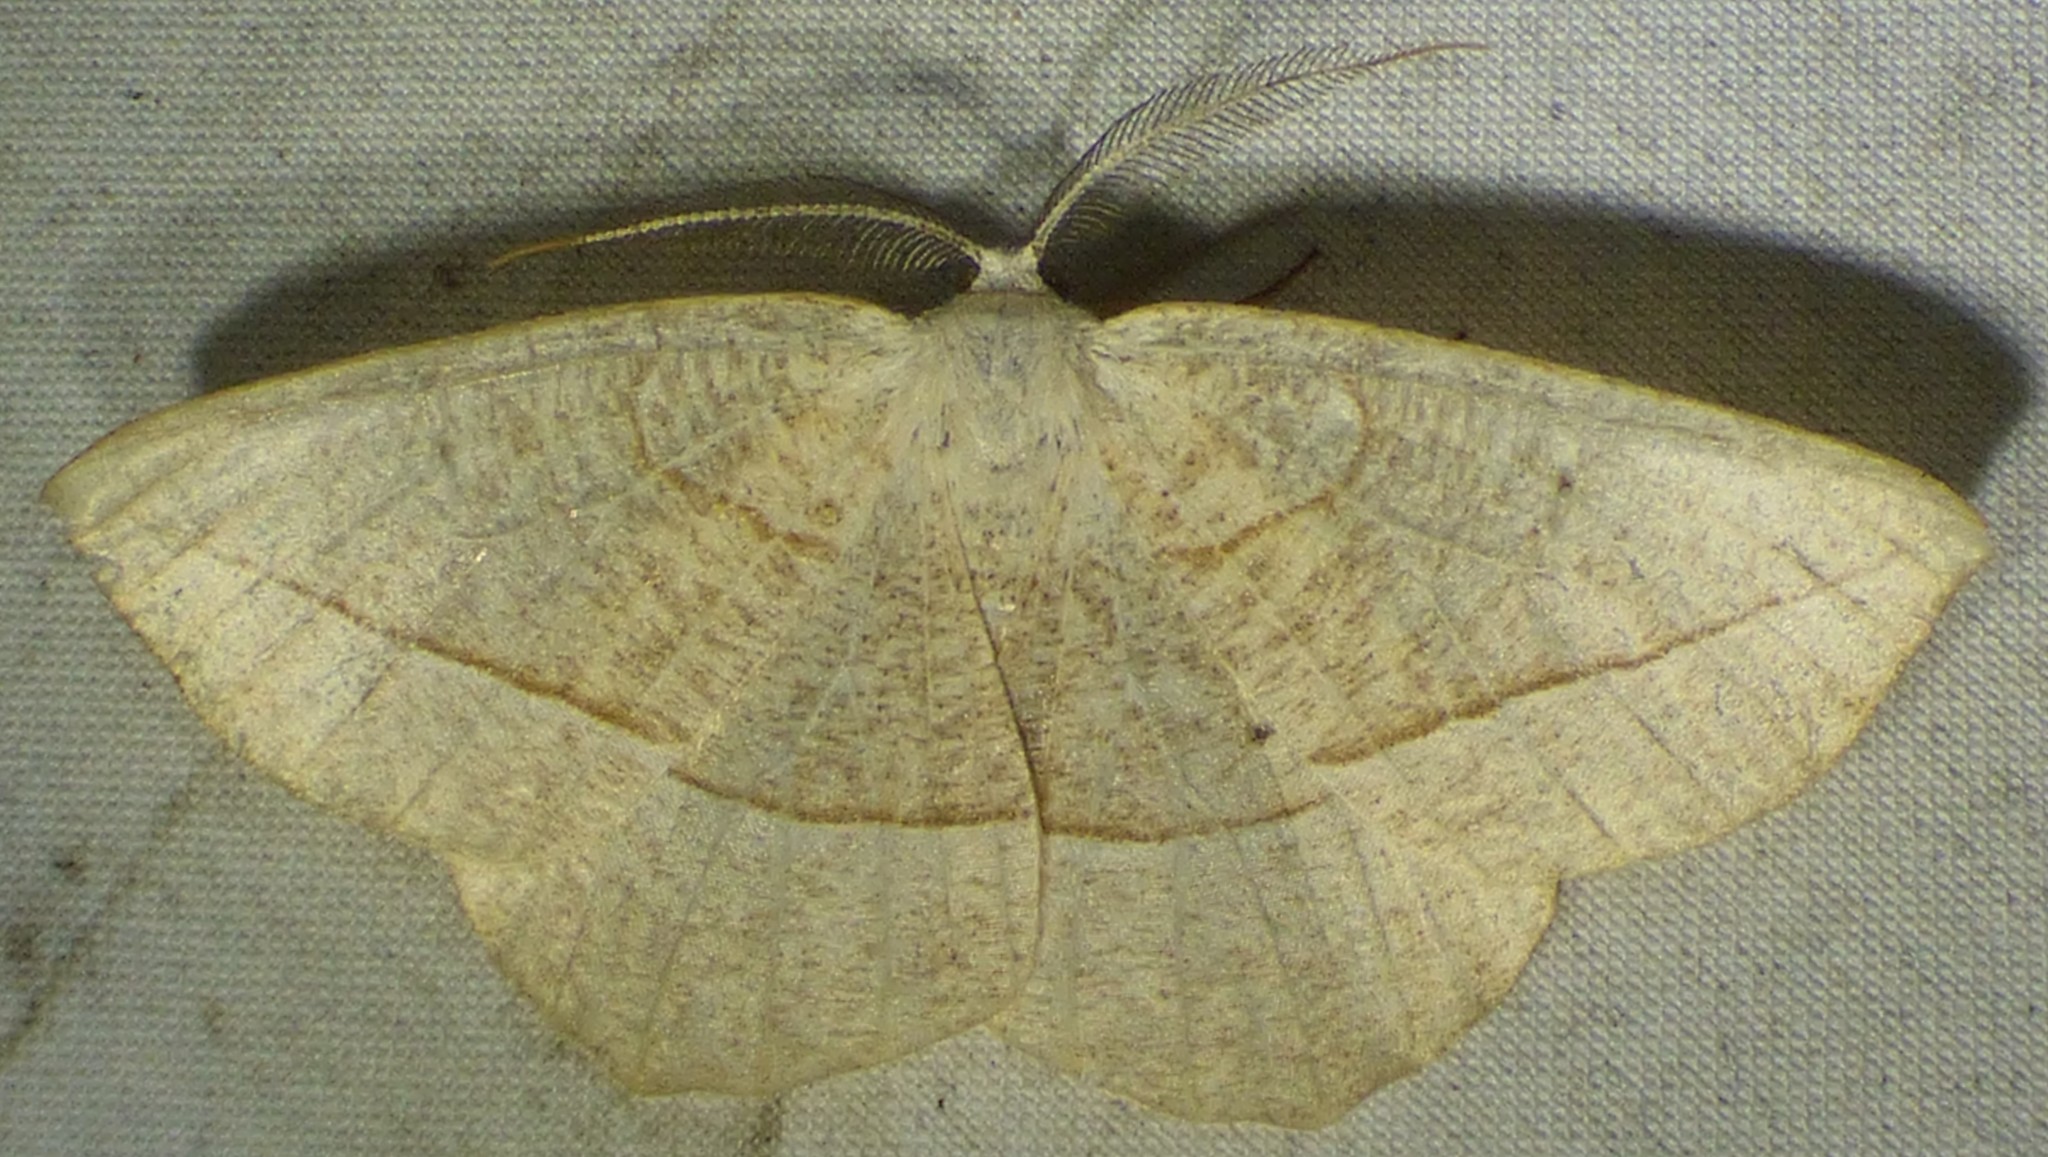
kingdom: Animalia
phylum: Arthropoda
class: Insecta
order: Lepidoptera
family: Geometridae
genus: Eusarca
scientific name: Eusarca confusaria
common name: Confused eusarca
